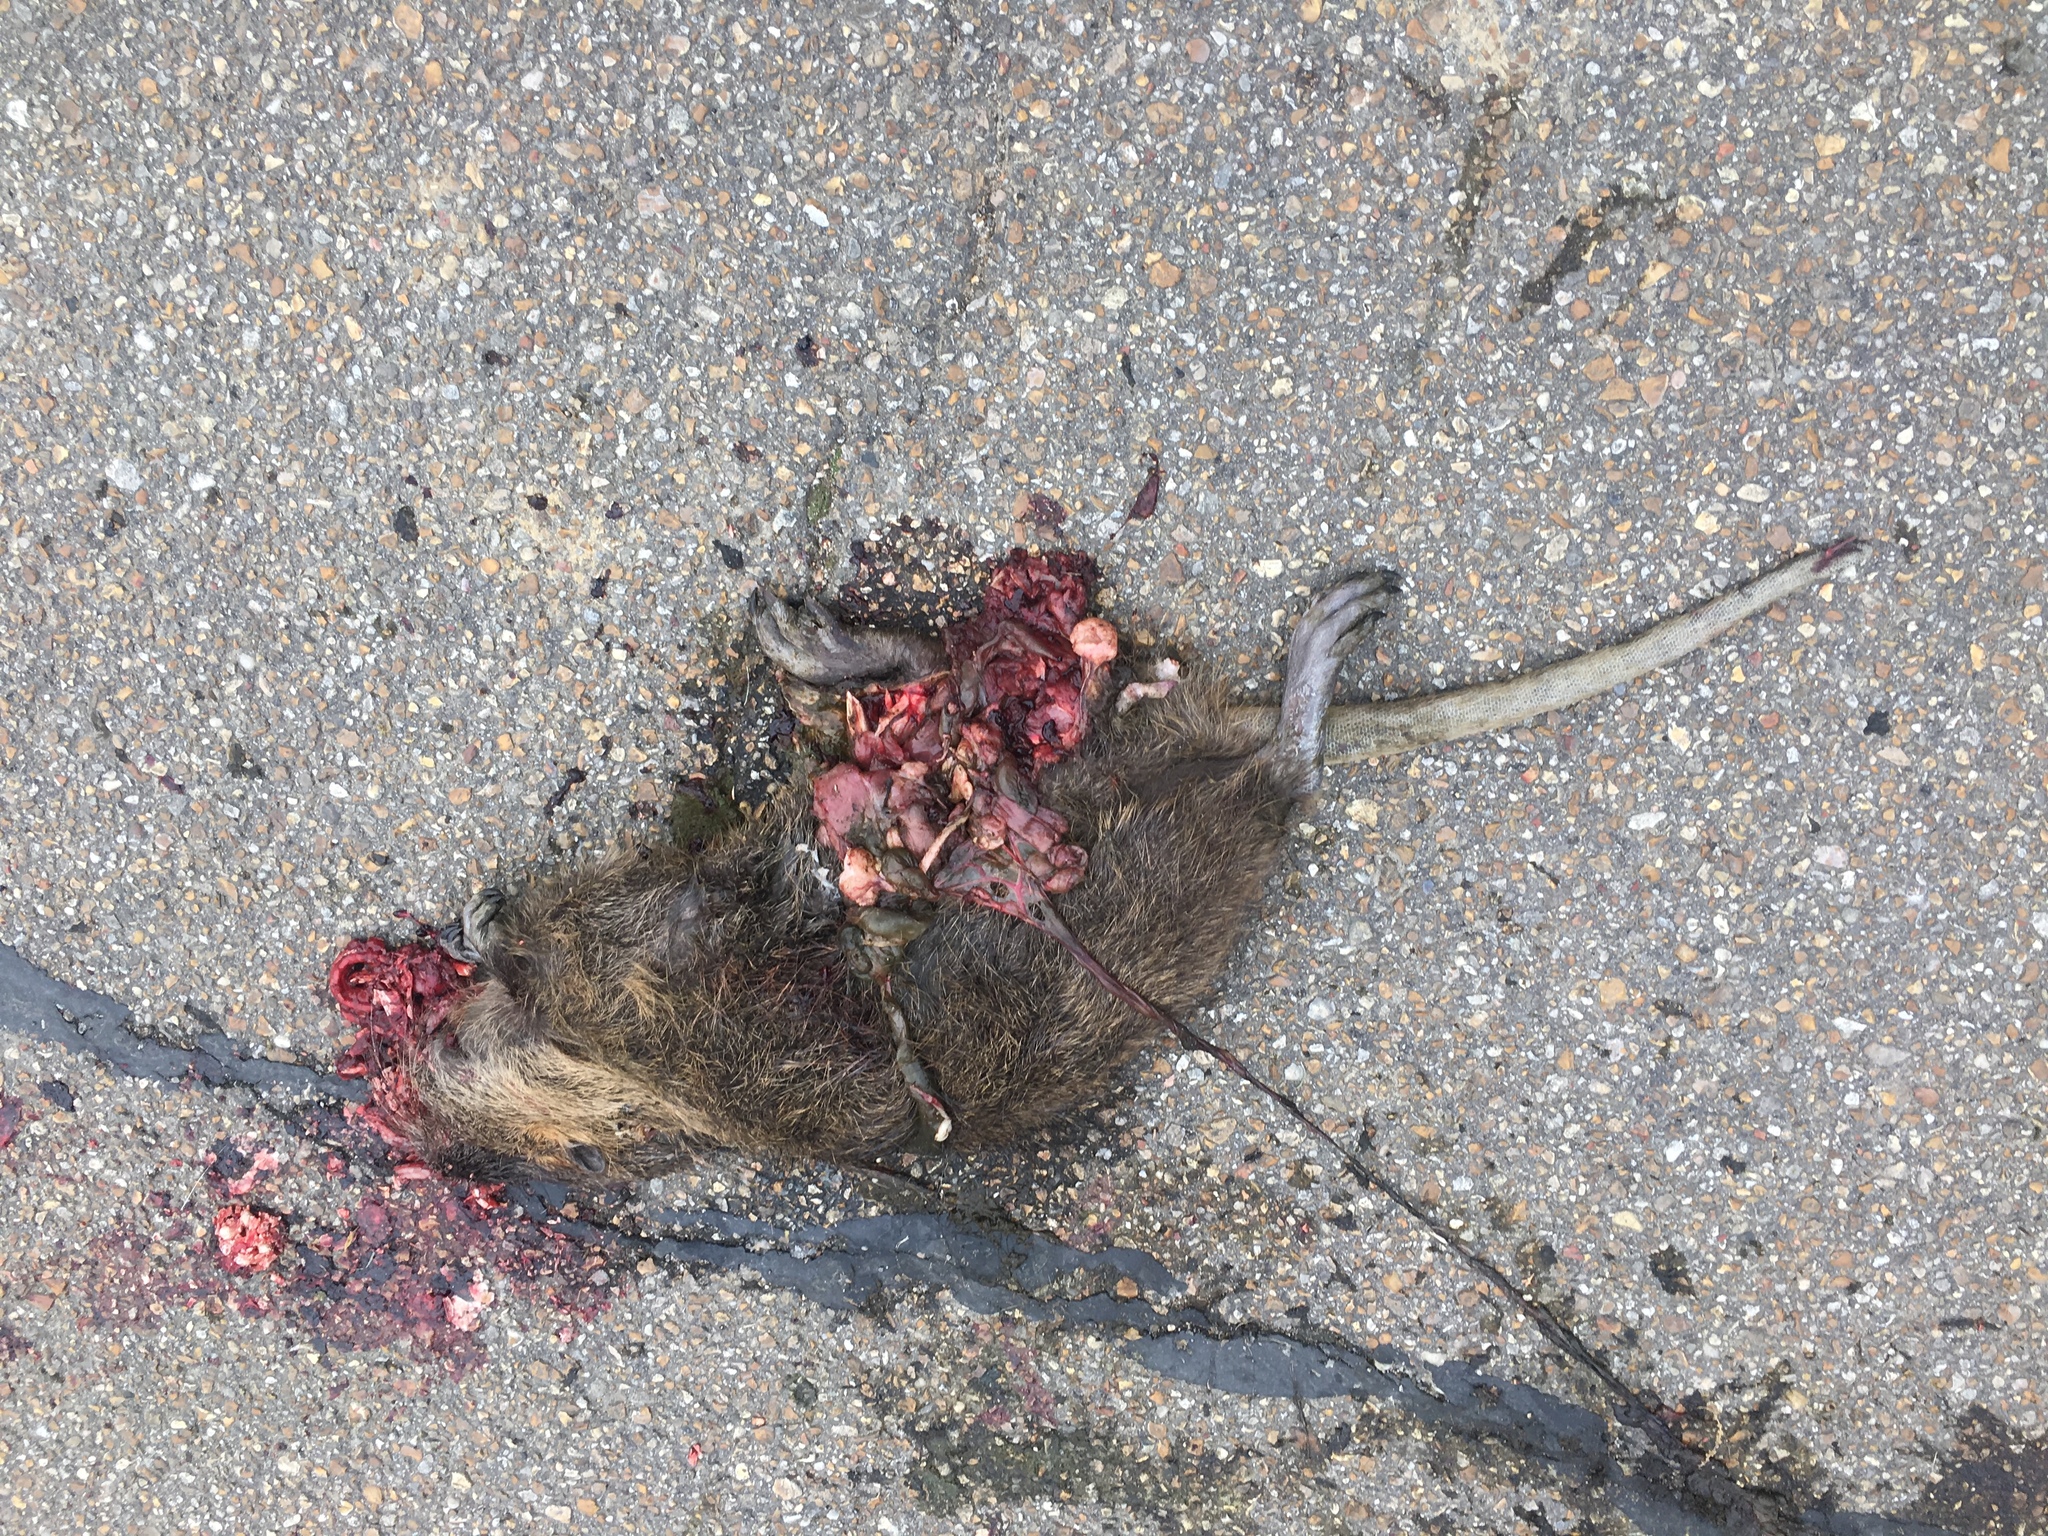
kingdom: Animalia
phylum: Chordata
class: Mammalia
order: Rodentia
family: Myocastoridae
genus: Myocastor
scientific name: Myocastor coypus
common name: Coypu
